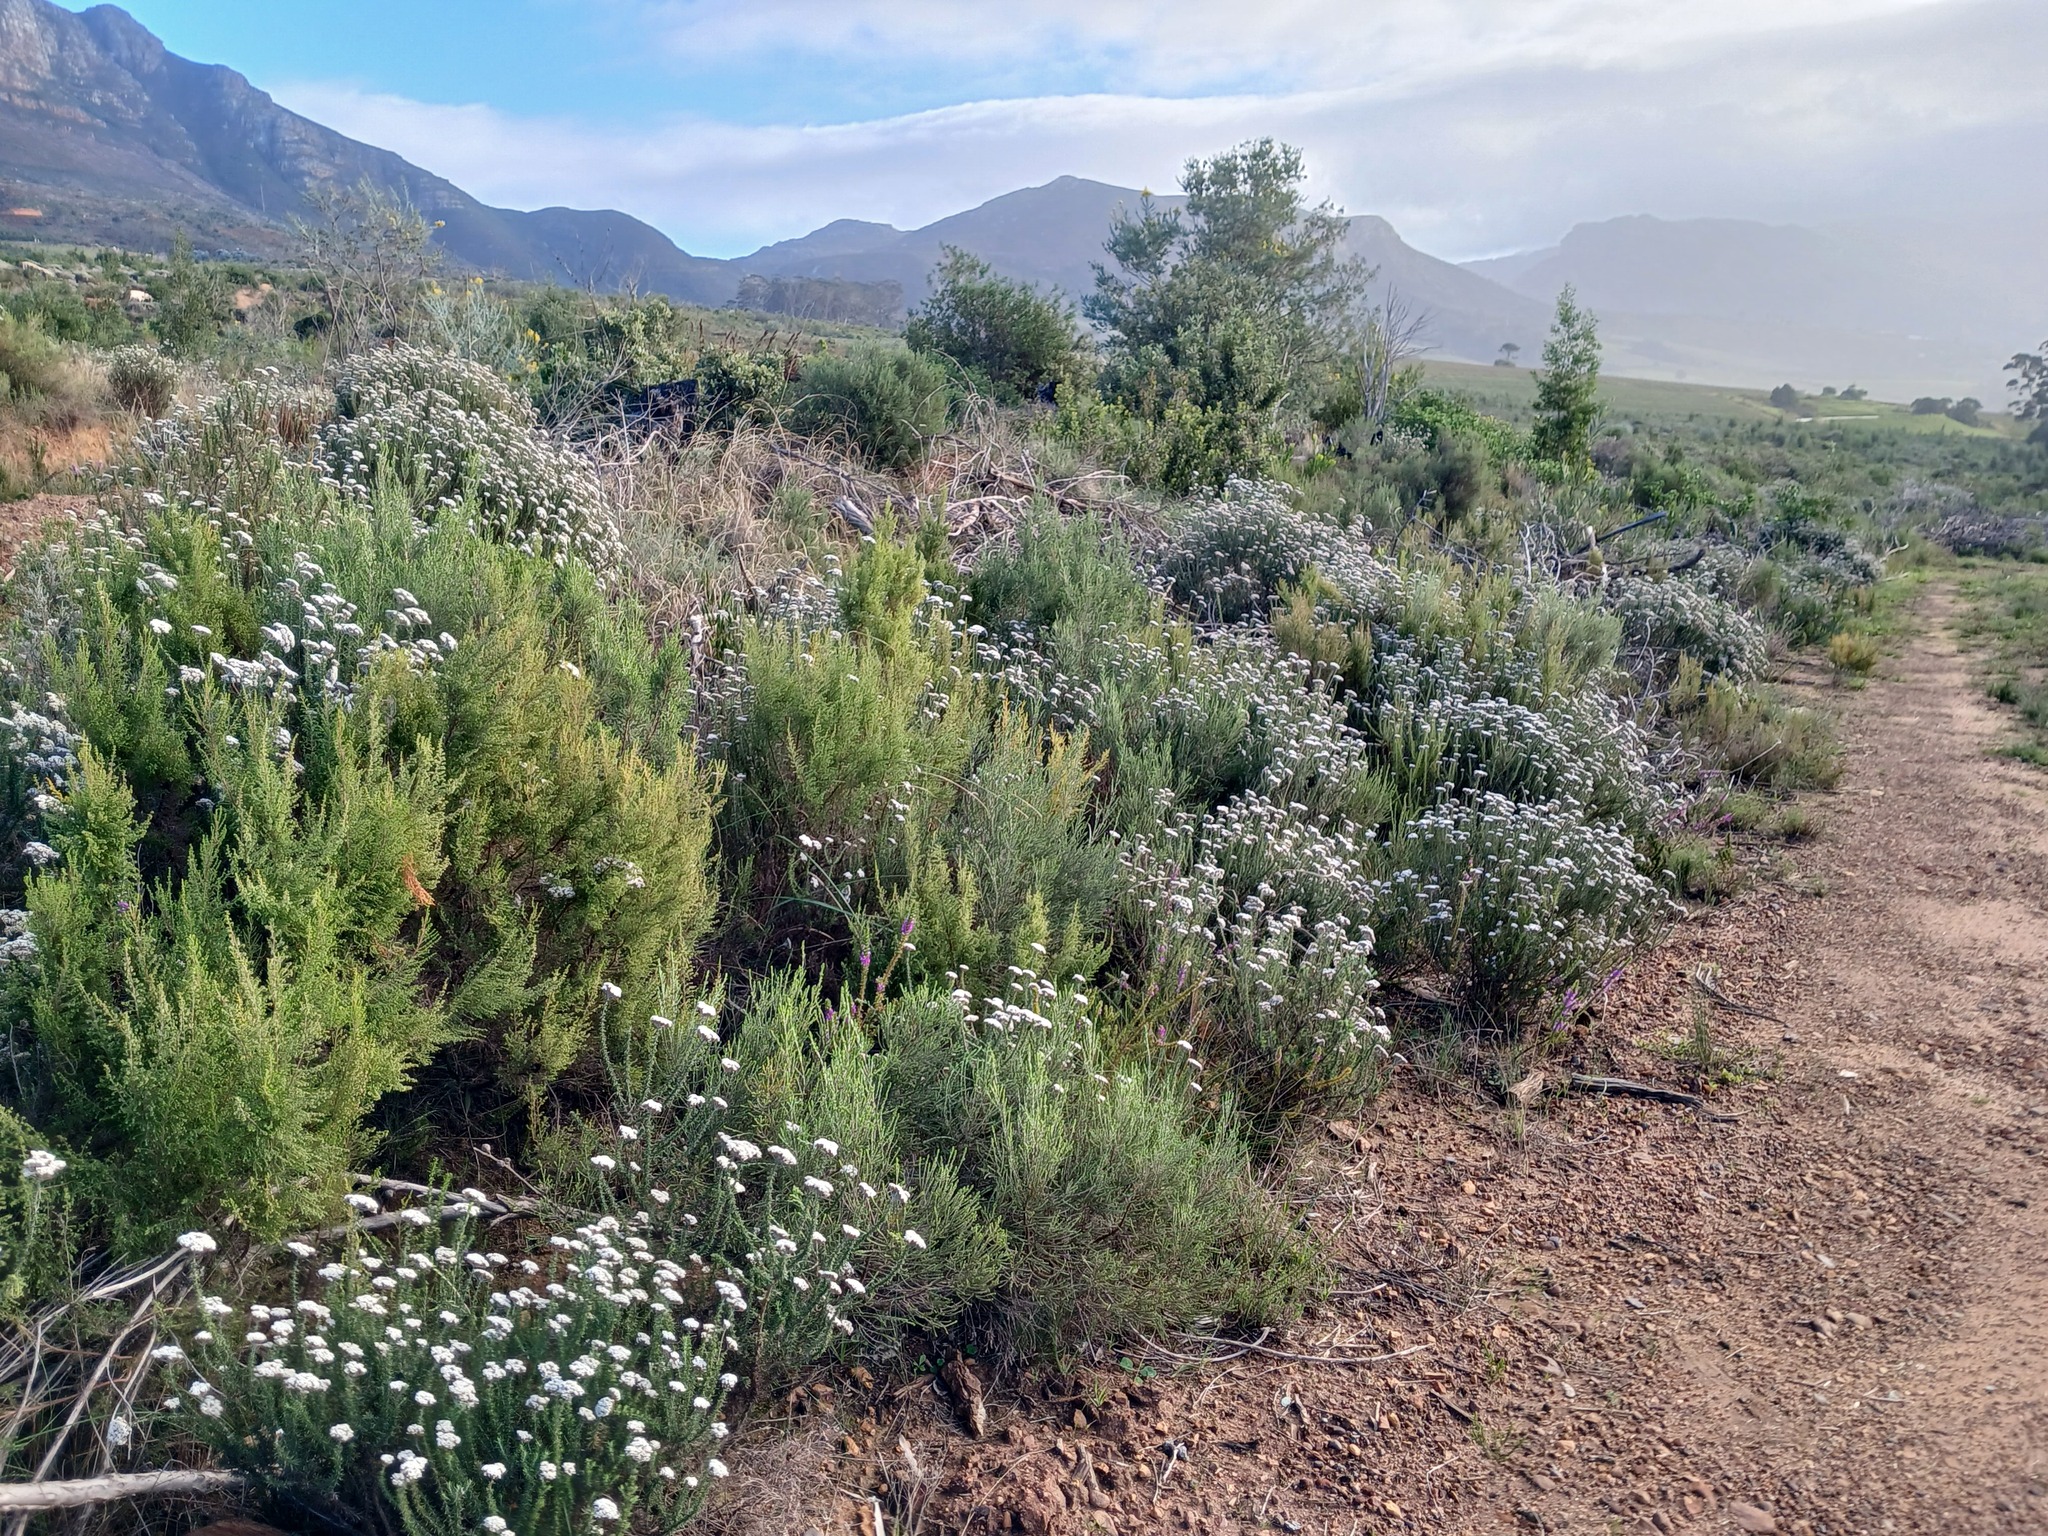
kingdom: Plantae
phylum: Tracheophyta
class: Magnoliopsida
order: Malvales
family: Thymelaeaceae
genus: Passerina
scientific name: Passerina corymbosa
